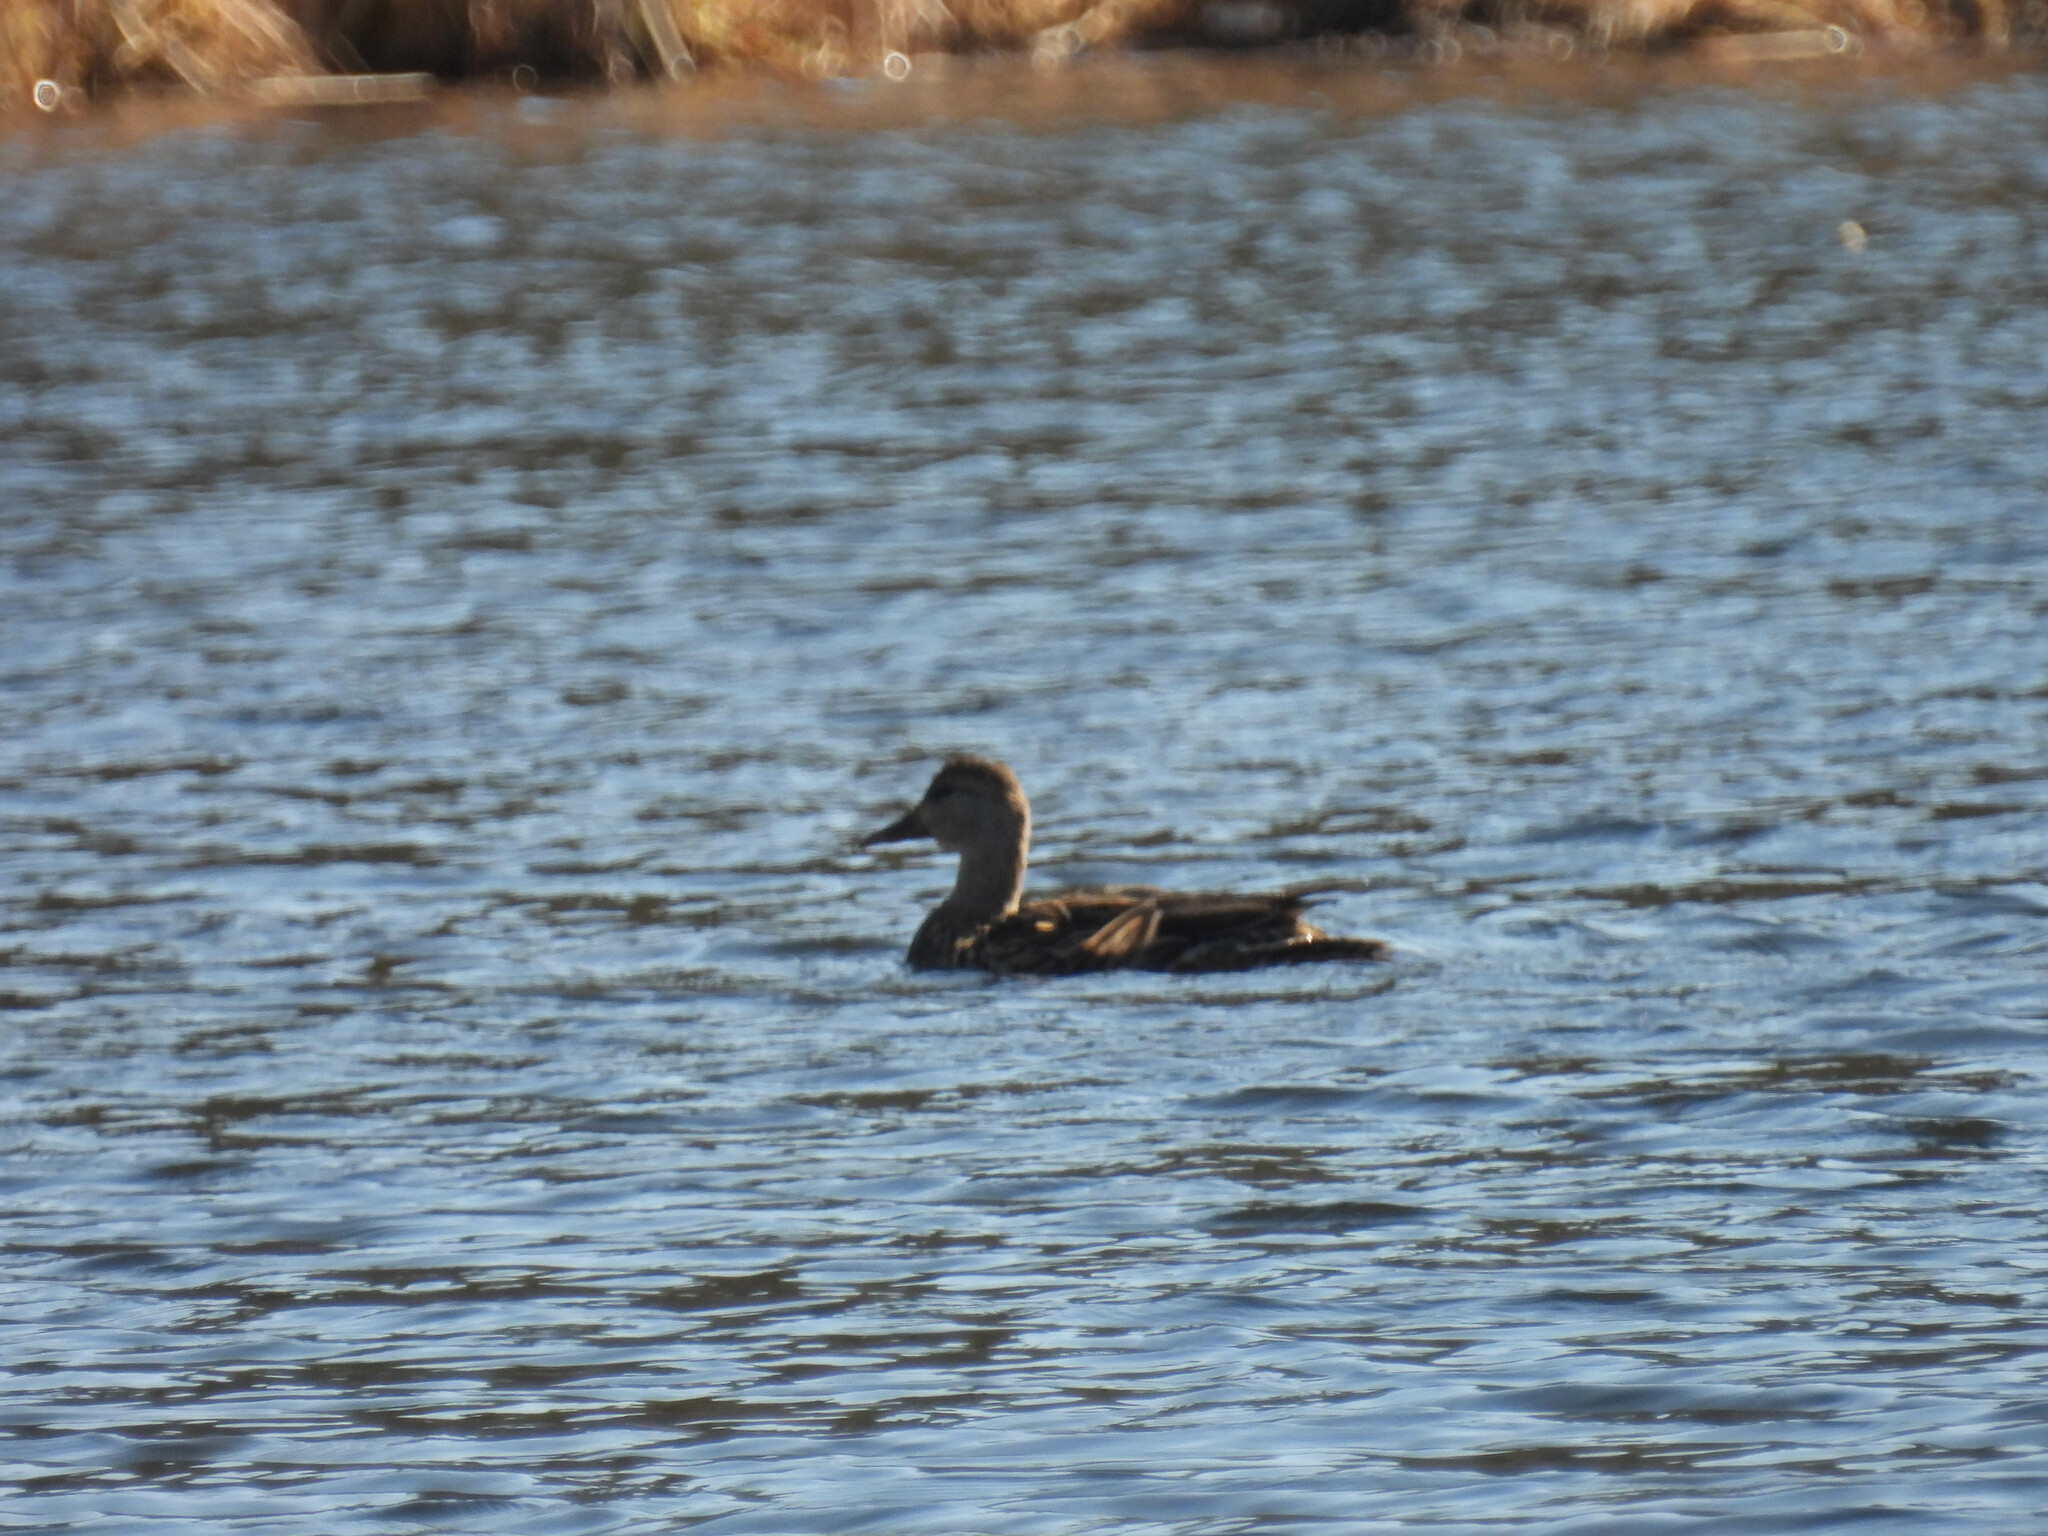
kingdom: Animalia
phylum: Chordata
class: Aves
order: Anseriformes
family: Anatidae
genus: Anas
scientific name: Anas platyrhynchos
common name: Mallard
